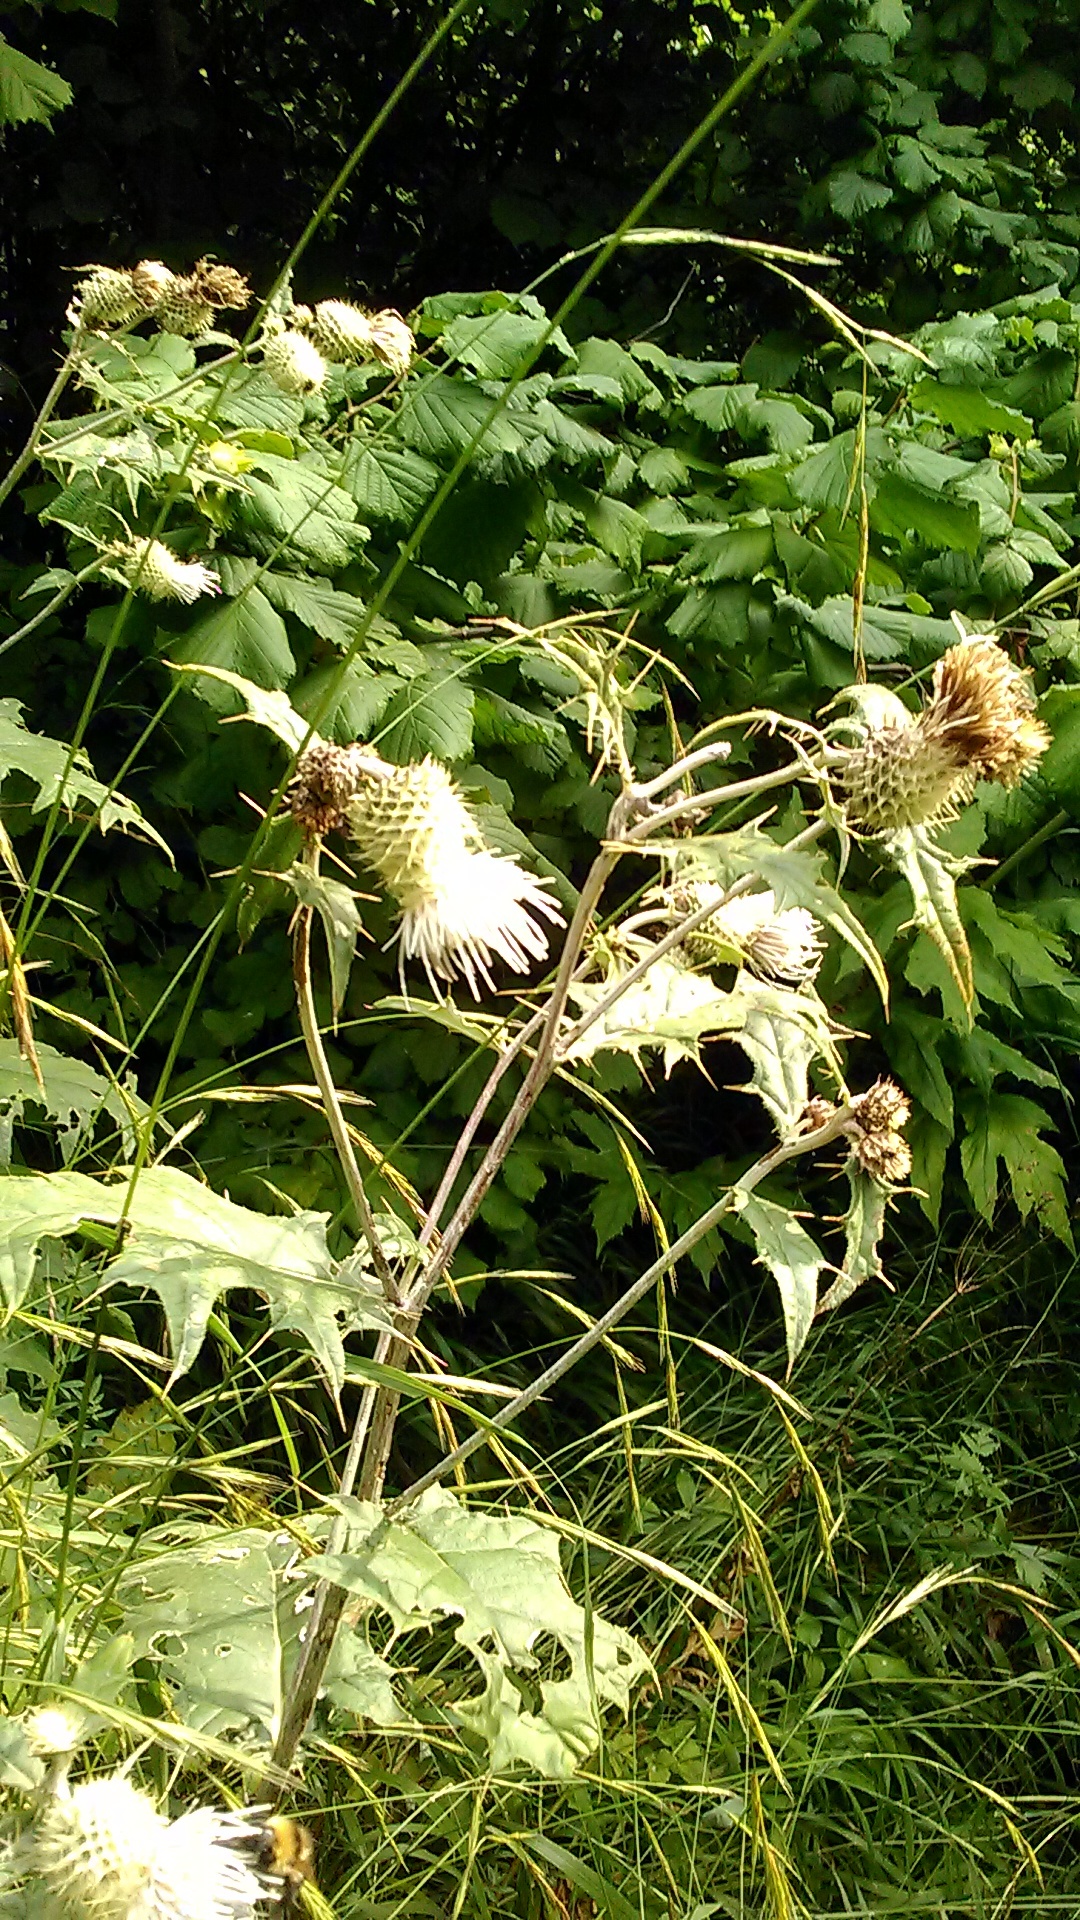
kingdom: Plantae
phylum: Tracheophyta
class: Magnoliopsida
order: Asterales
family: Asteraceae
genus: Lophiolepis
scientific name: Lophiolepis chlorocoma
